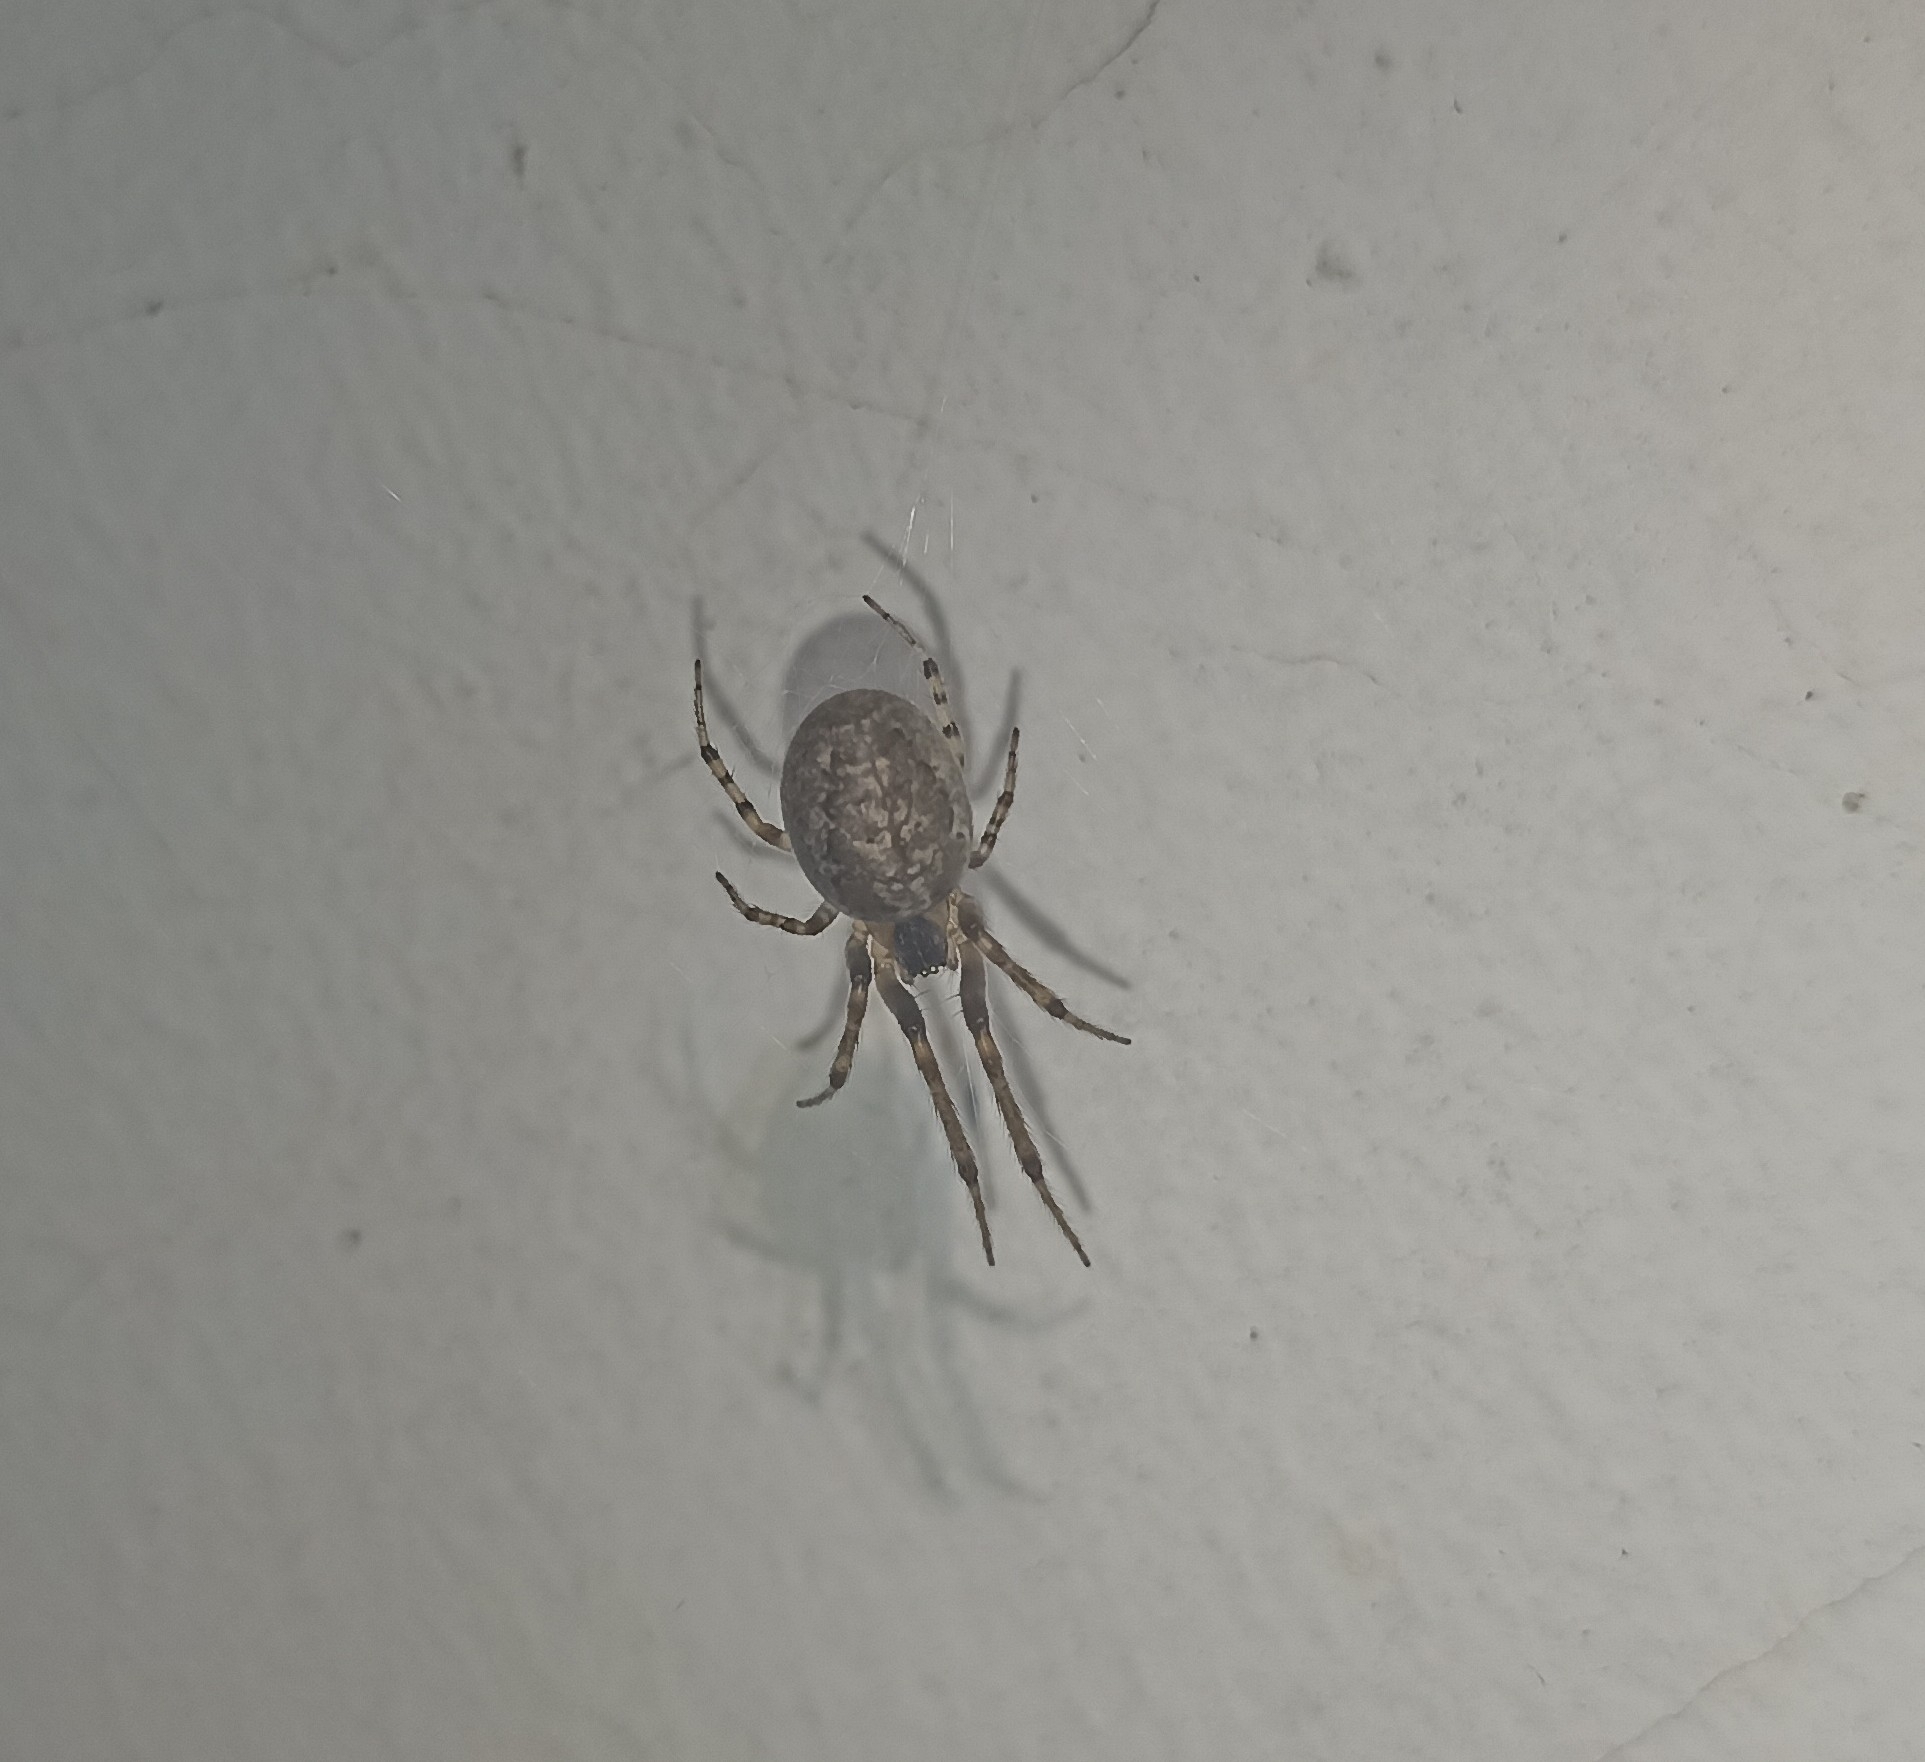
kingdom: Animalia
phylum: Arthropoda
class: Arachnida
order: Araneae
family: Araneidae
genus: Zygiella
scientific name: Zygiella x-notata
